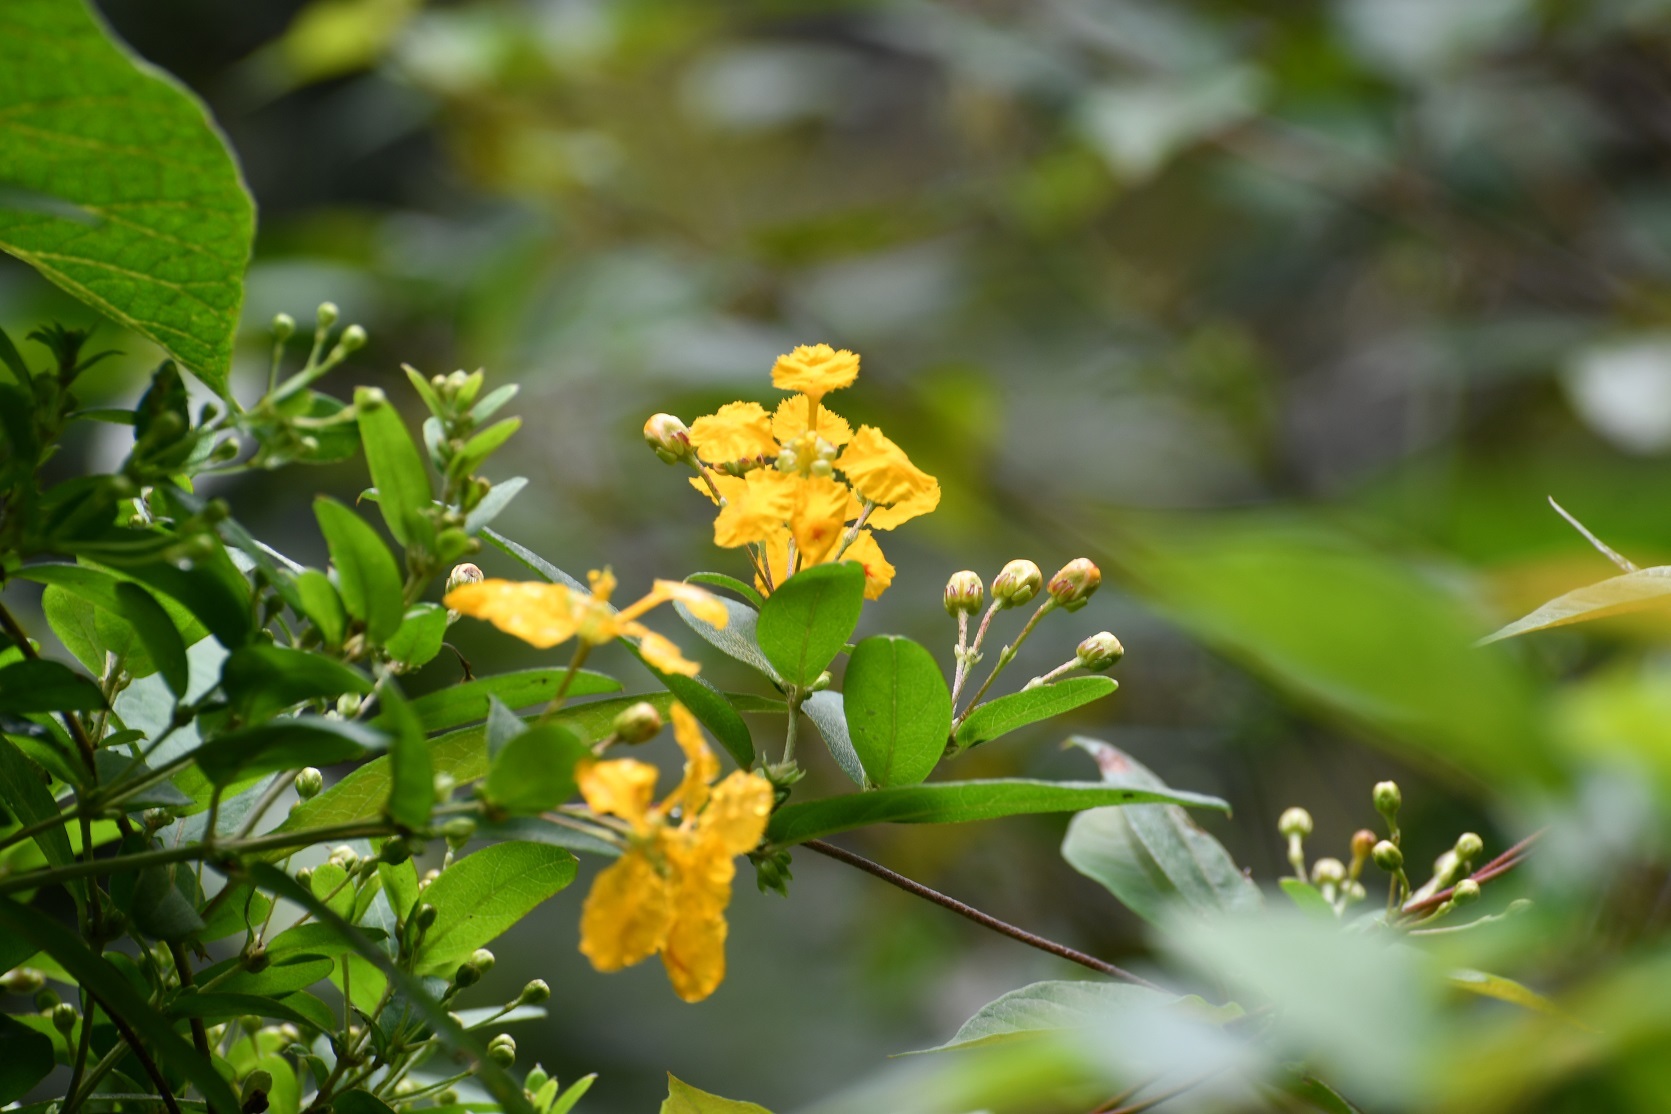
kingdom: Plantae
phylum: Tracheophyta
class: Magnoliopsida
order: Malpighiales
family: Malpighiaceae
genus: Gaudichaudia
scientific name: Gaudichaudia hexandra
